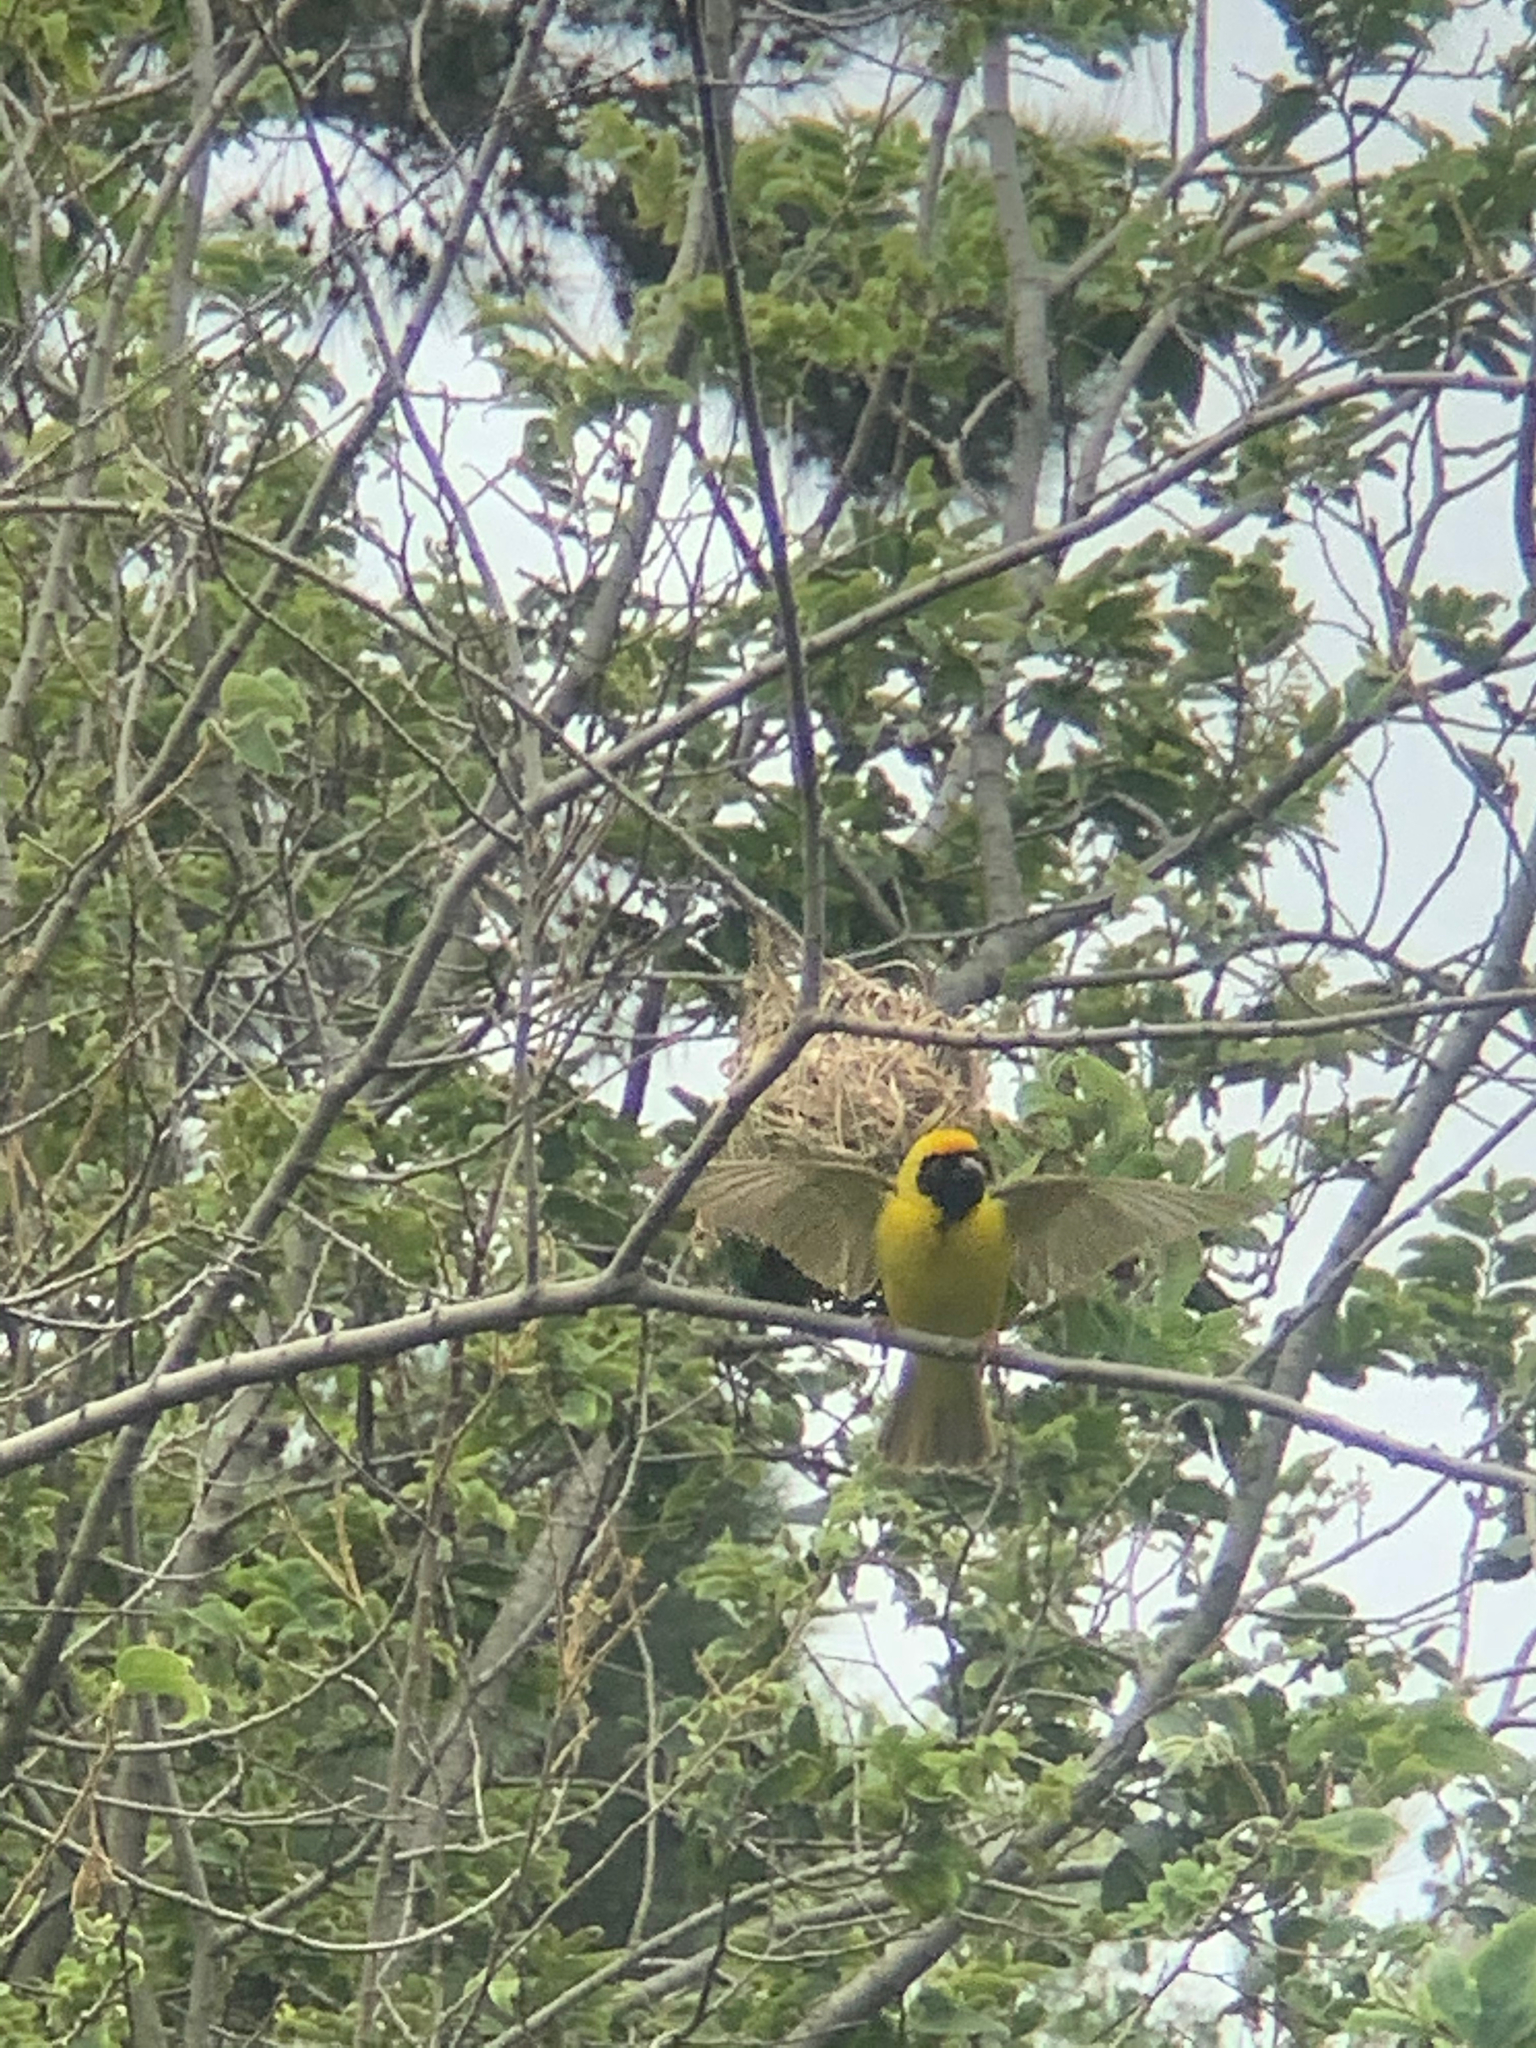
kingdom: Animalia
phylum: Chordata
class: Aves
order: Passeriformes
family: Ploceidae
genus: Ploceus
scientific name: Ploceus velatus
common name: Southern masked weaver
